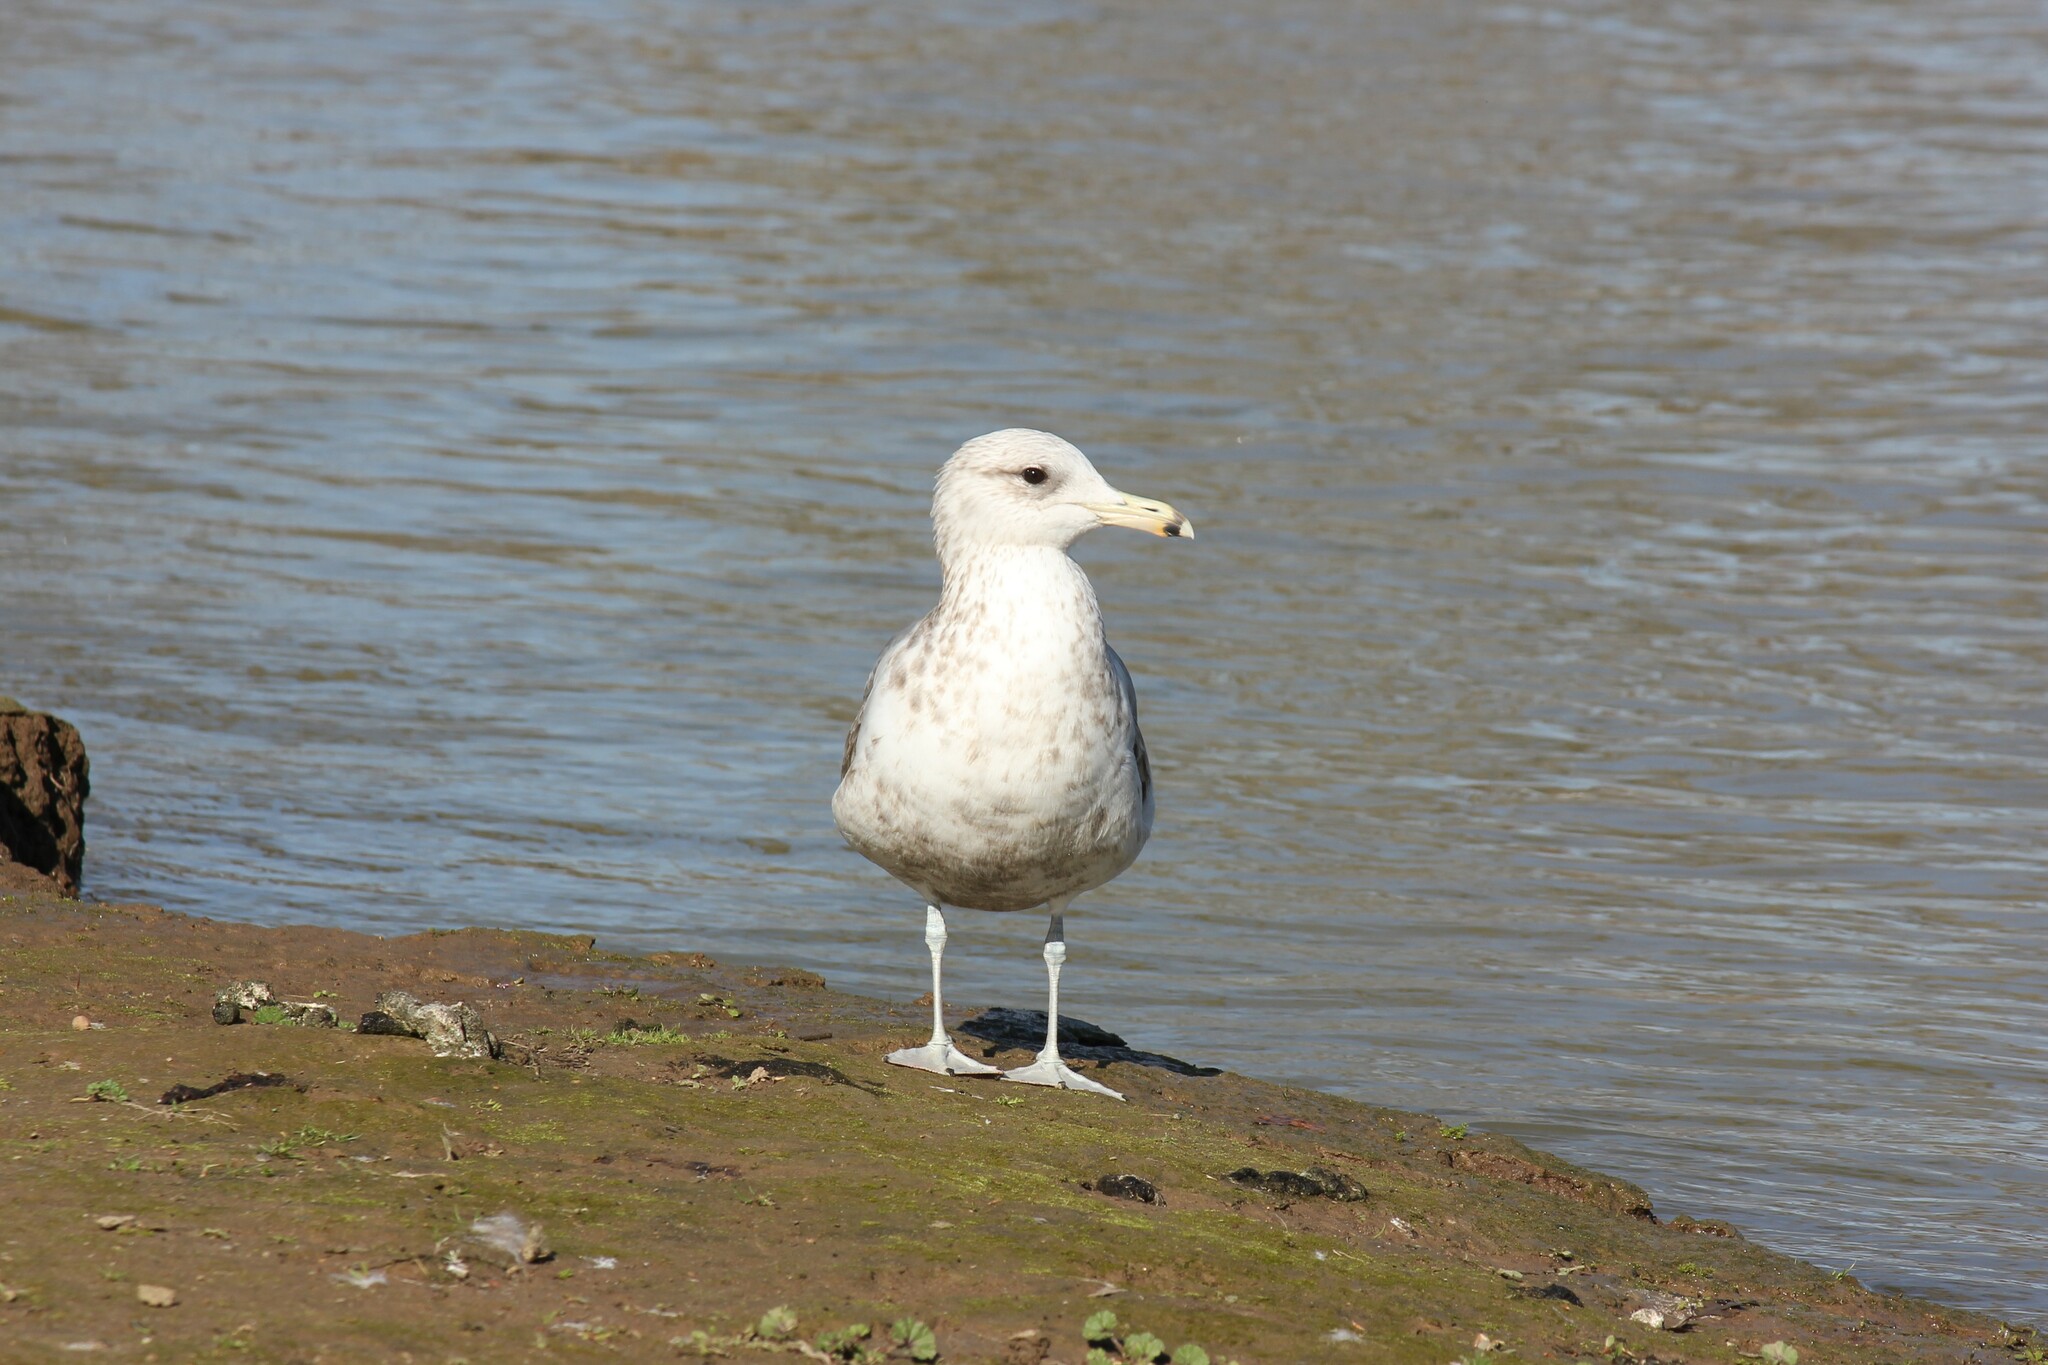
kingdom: Animalia
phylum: Chordata
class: Aves
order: Charadriiformes
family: Laridae
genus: Larus
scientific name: Larus californicus
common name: California gull
